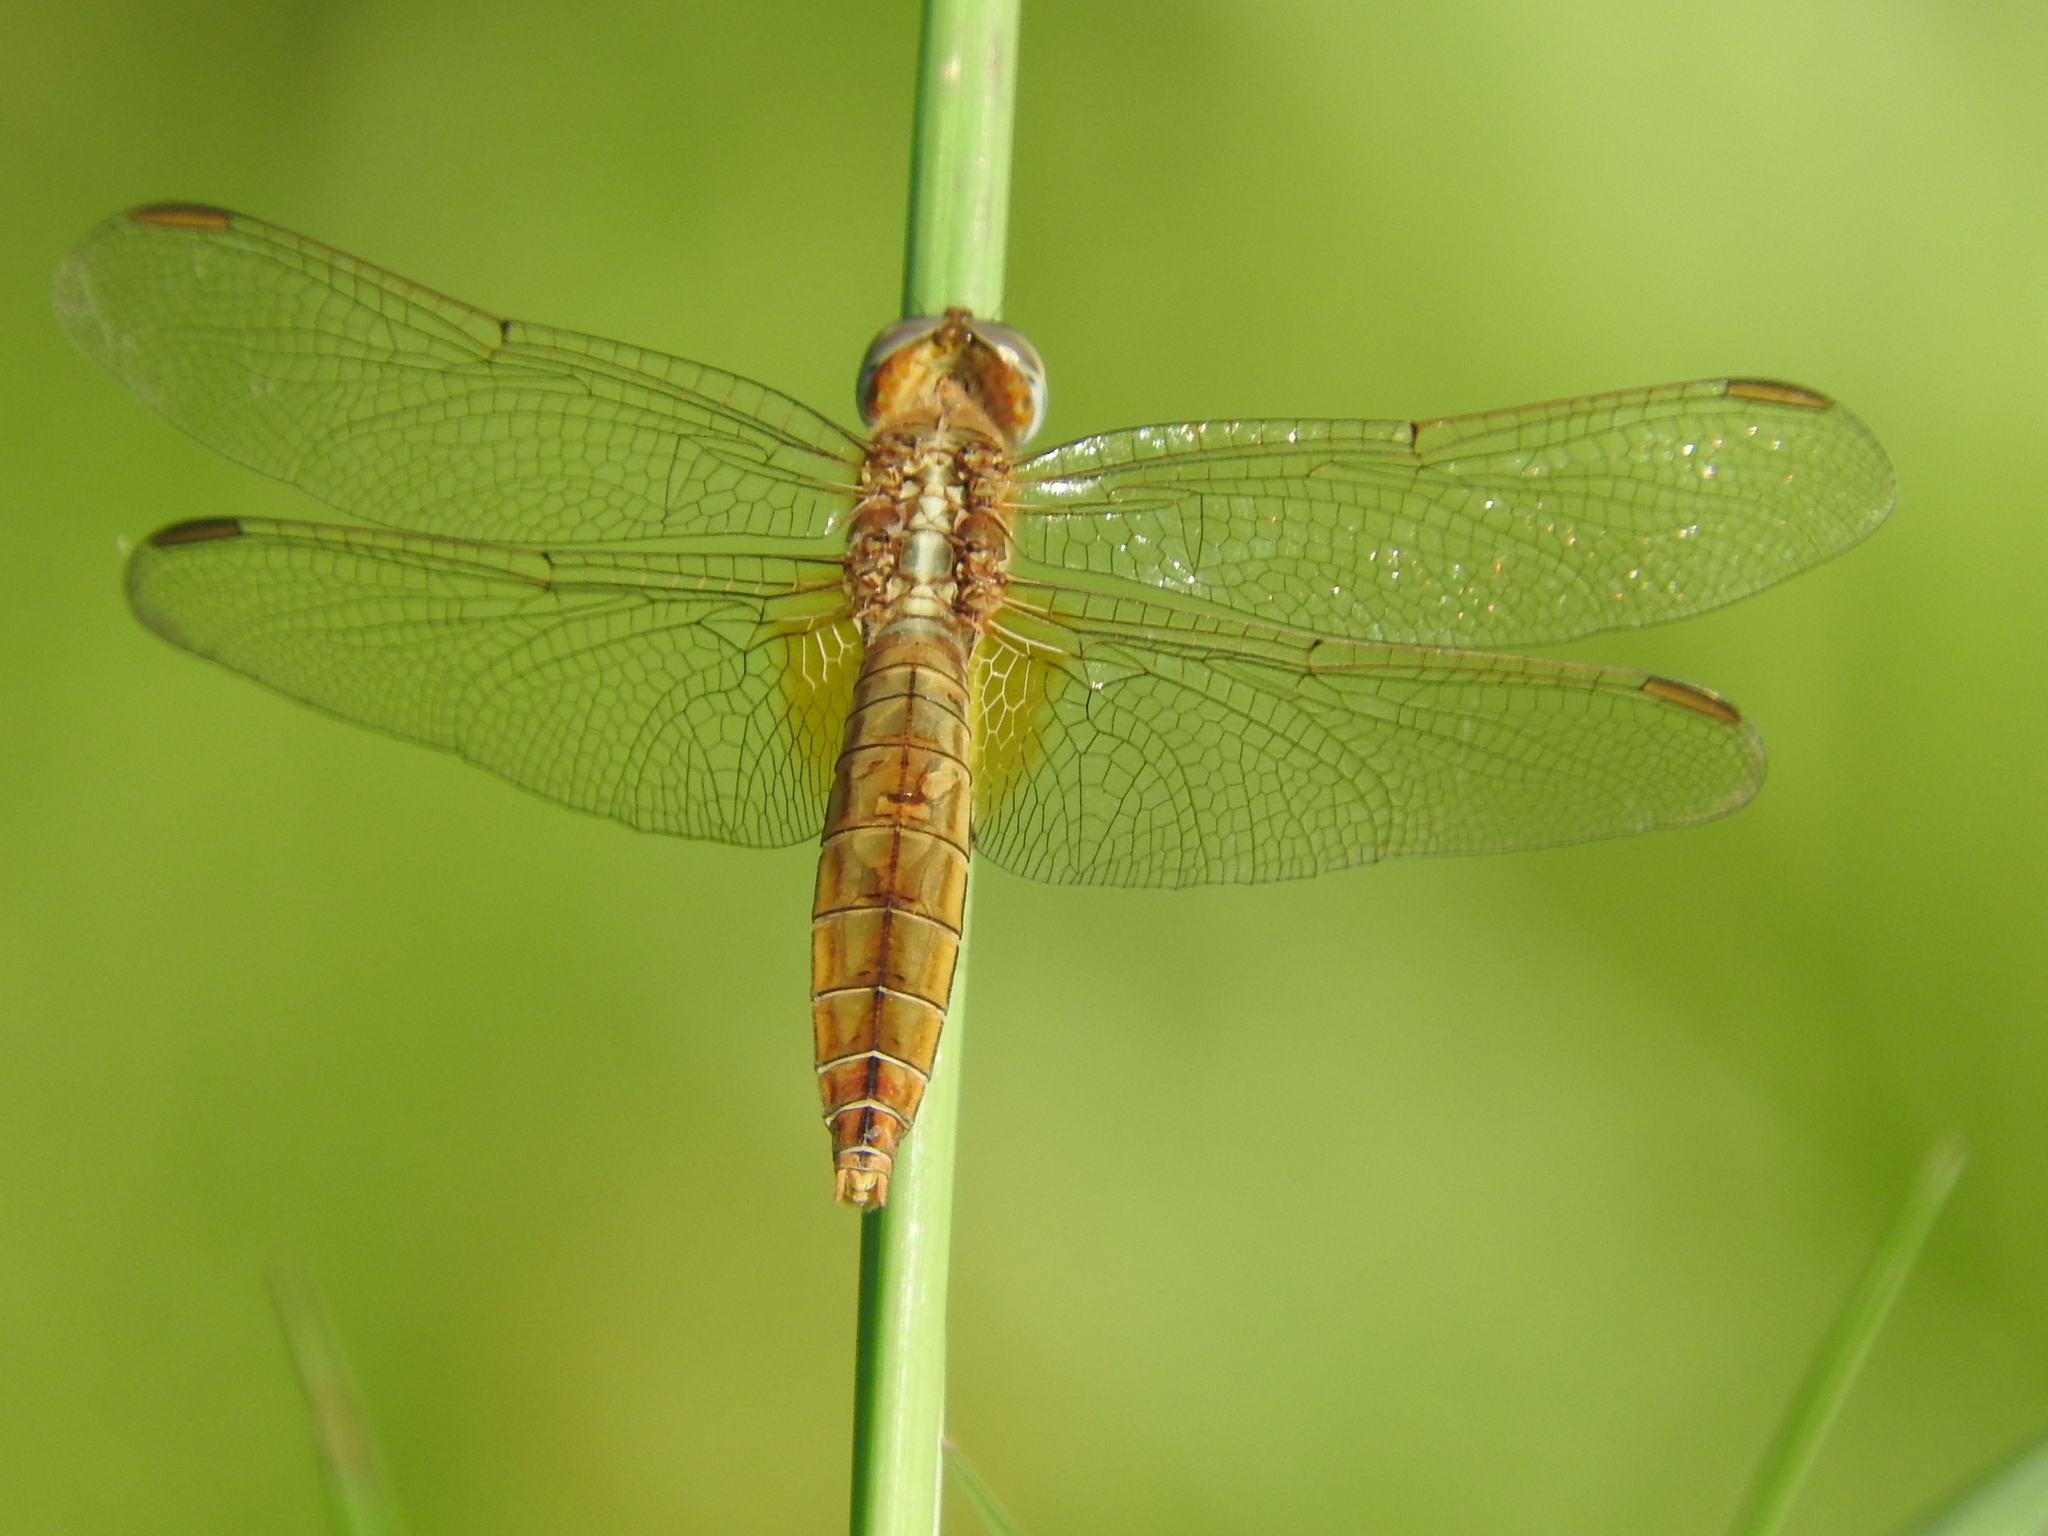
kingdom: Animalia
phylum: Arthropoda
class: Insecta
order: Odonata
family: Libellulidae
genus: Crocothemis
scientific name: Crocothemis erythraea
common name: Scarlet dragonfly
